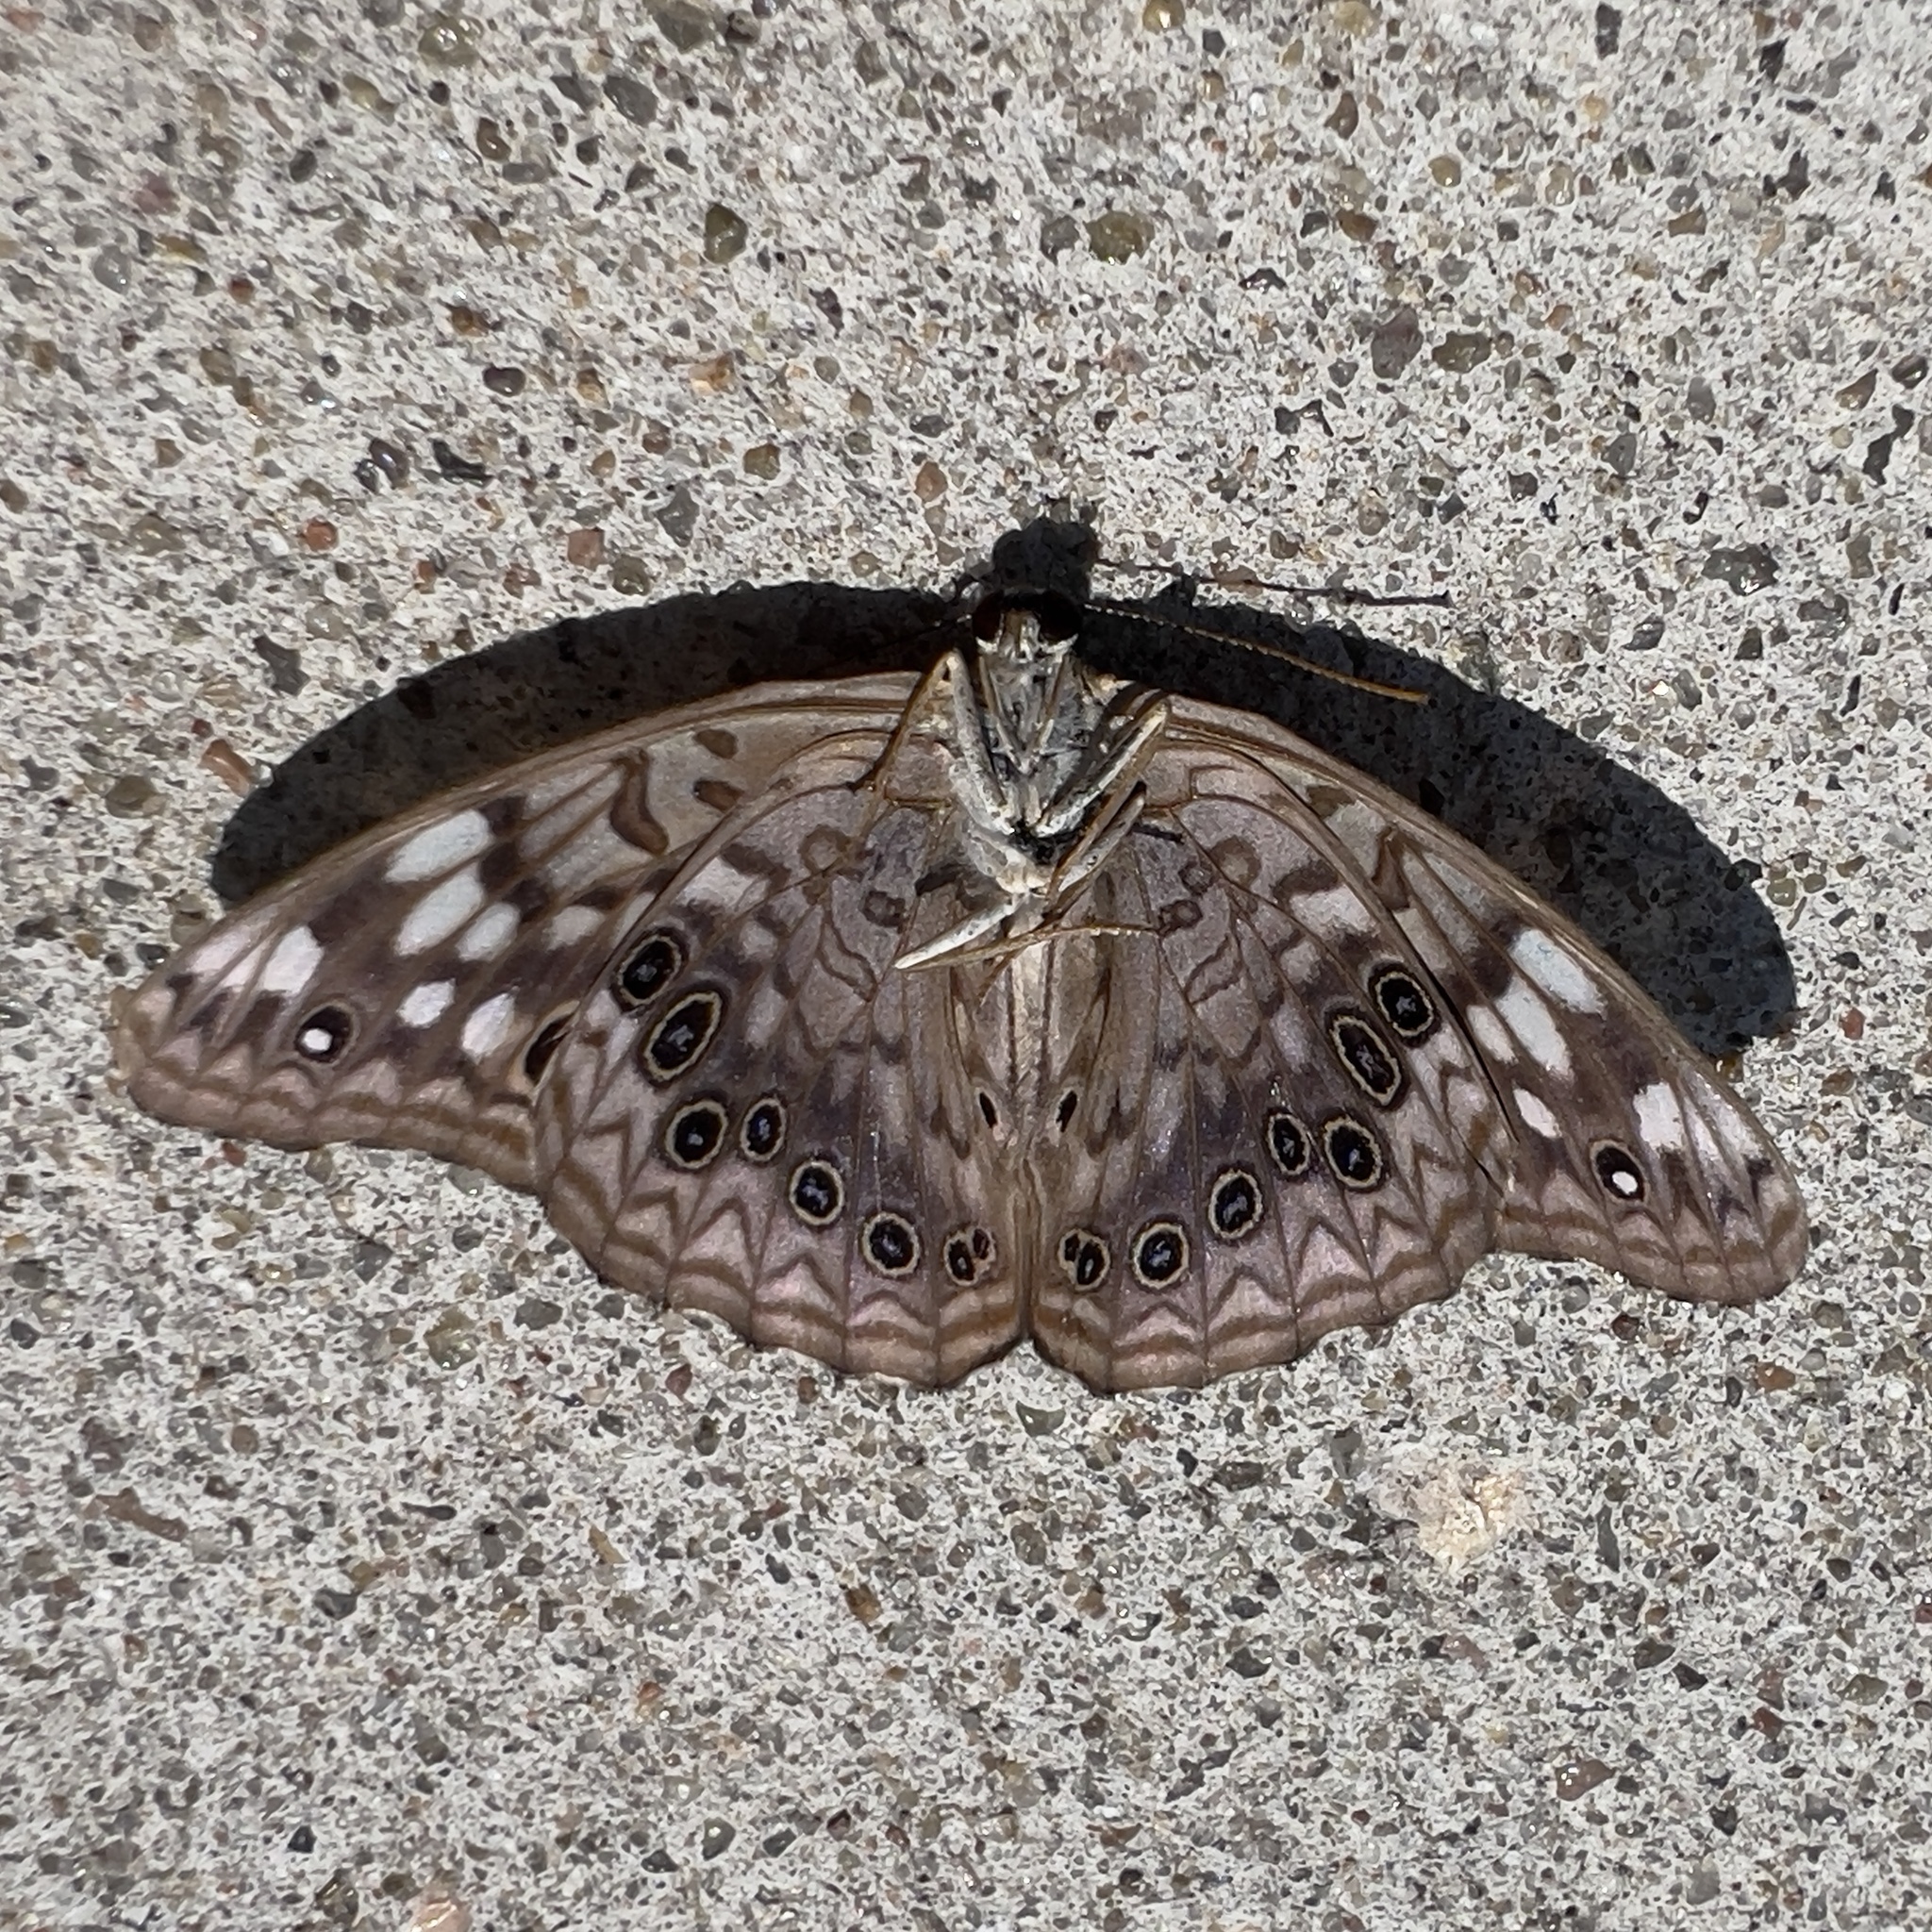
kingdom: Animalia
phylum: Arthropoda
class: Insecta
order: Lepidoptera
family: Nymphalidae
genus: Asterocampa
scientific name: Asterocampa celtis
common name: Hackberry emperor
